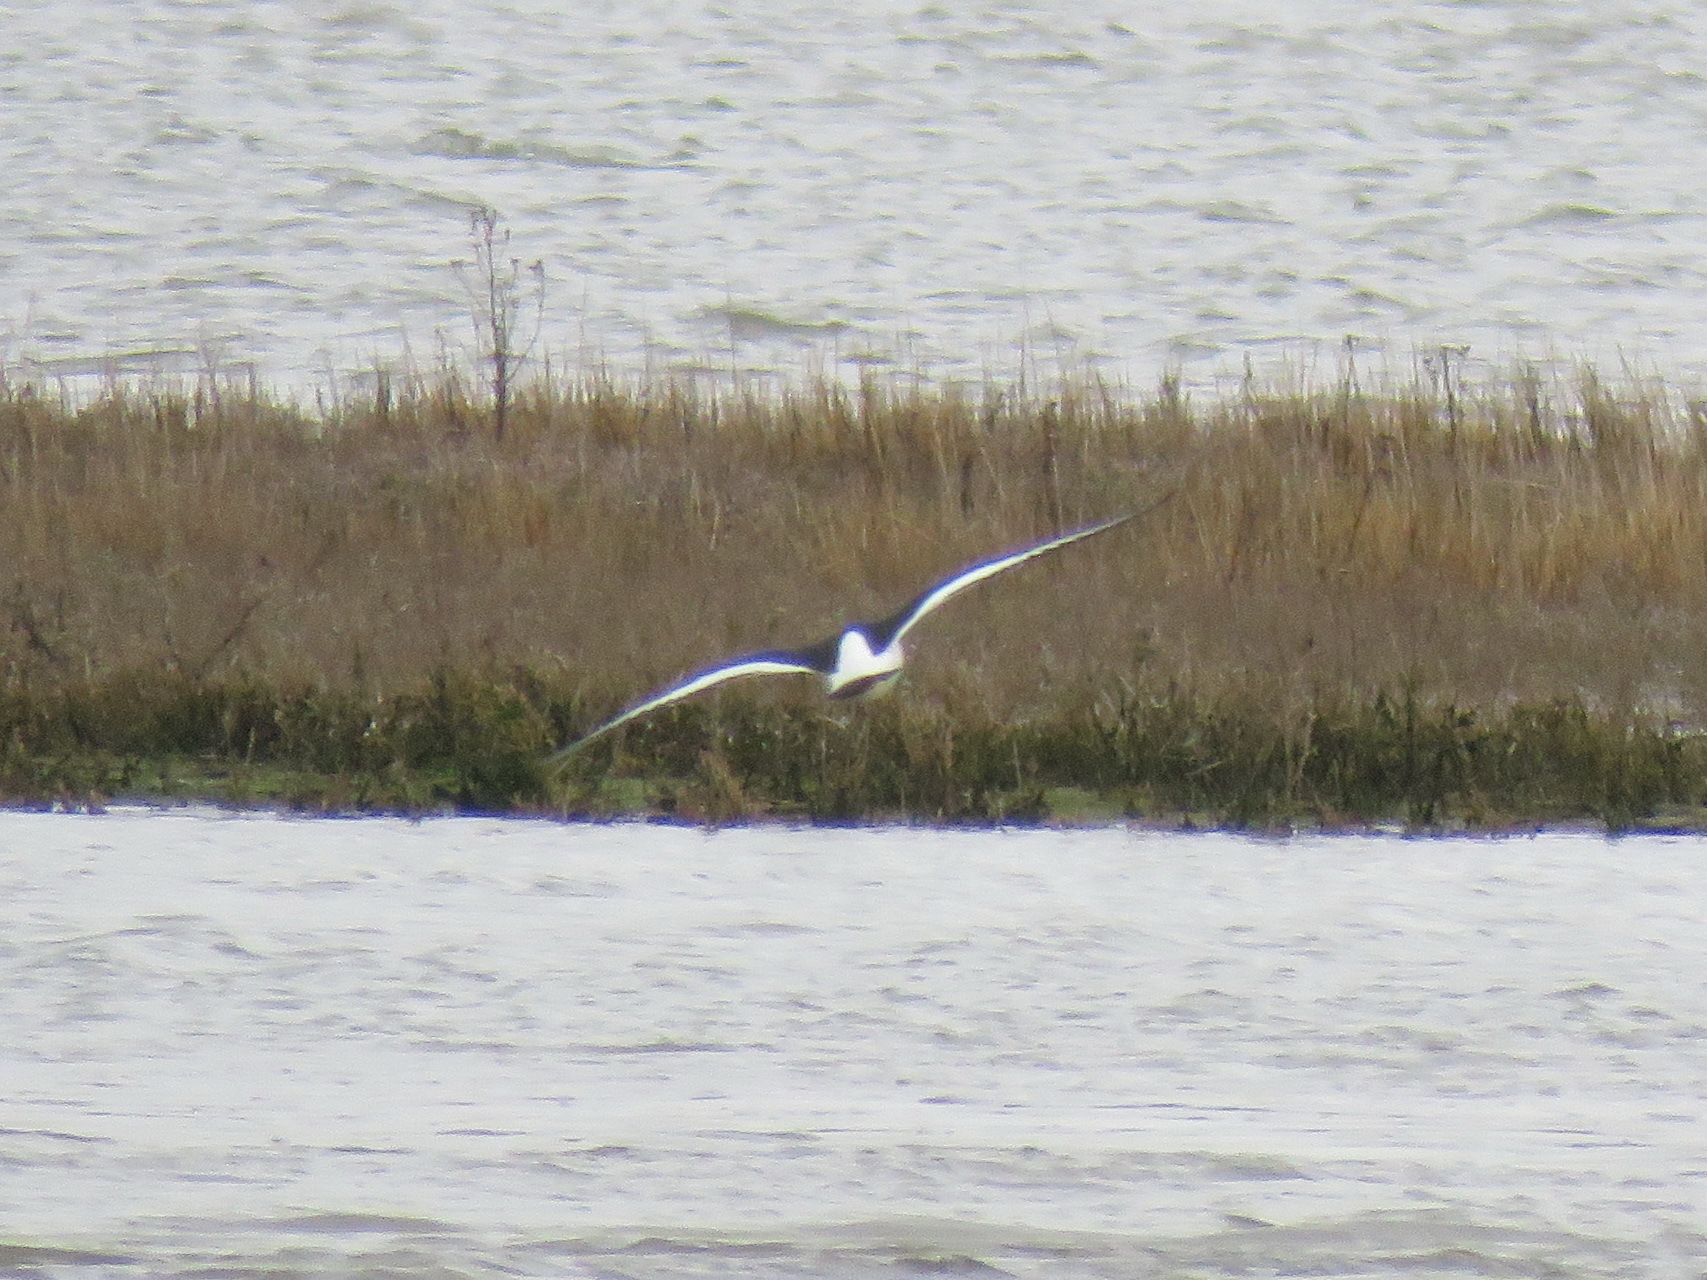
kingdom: Animalia
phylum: Chordata
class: Aves
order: Charadriiformes
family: Scolopacidae
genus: Tringa
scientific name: Tringa totanus
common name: Common redshank
